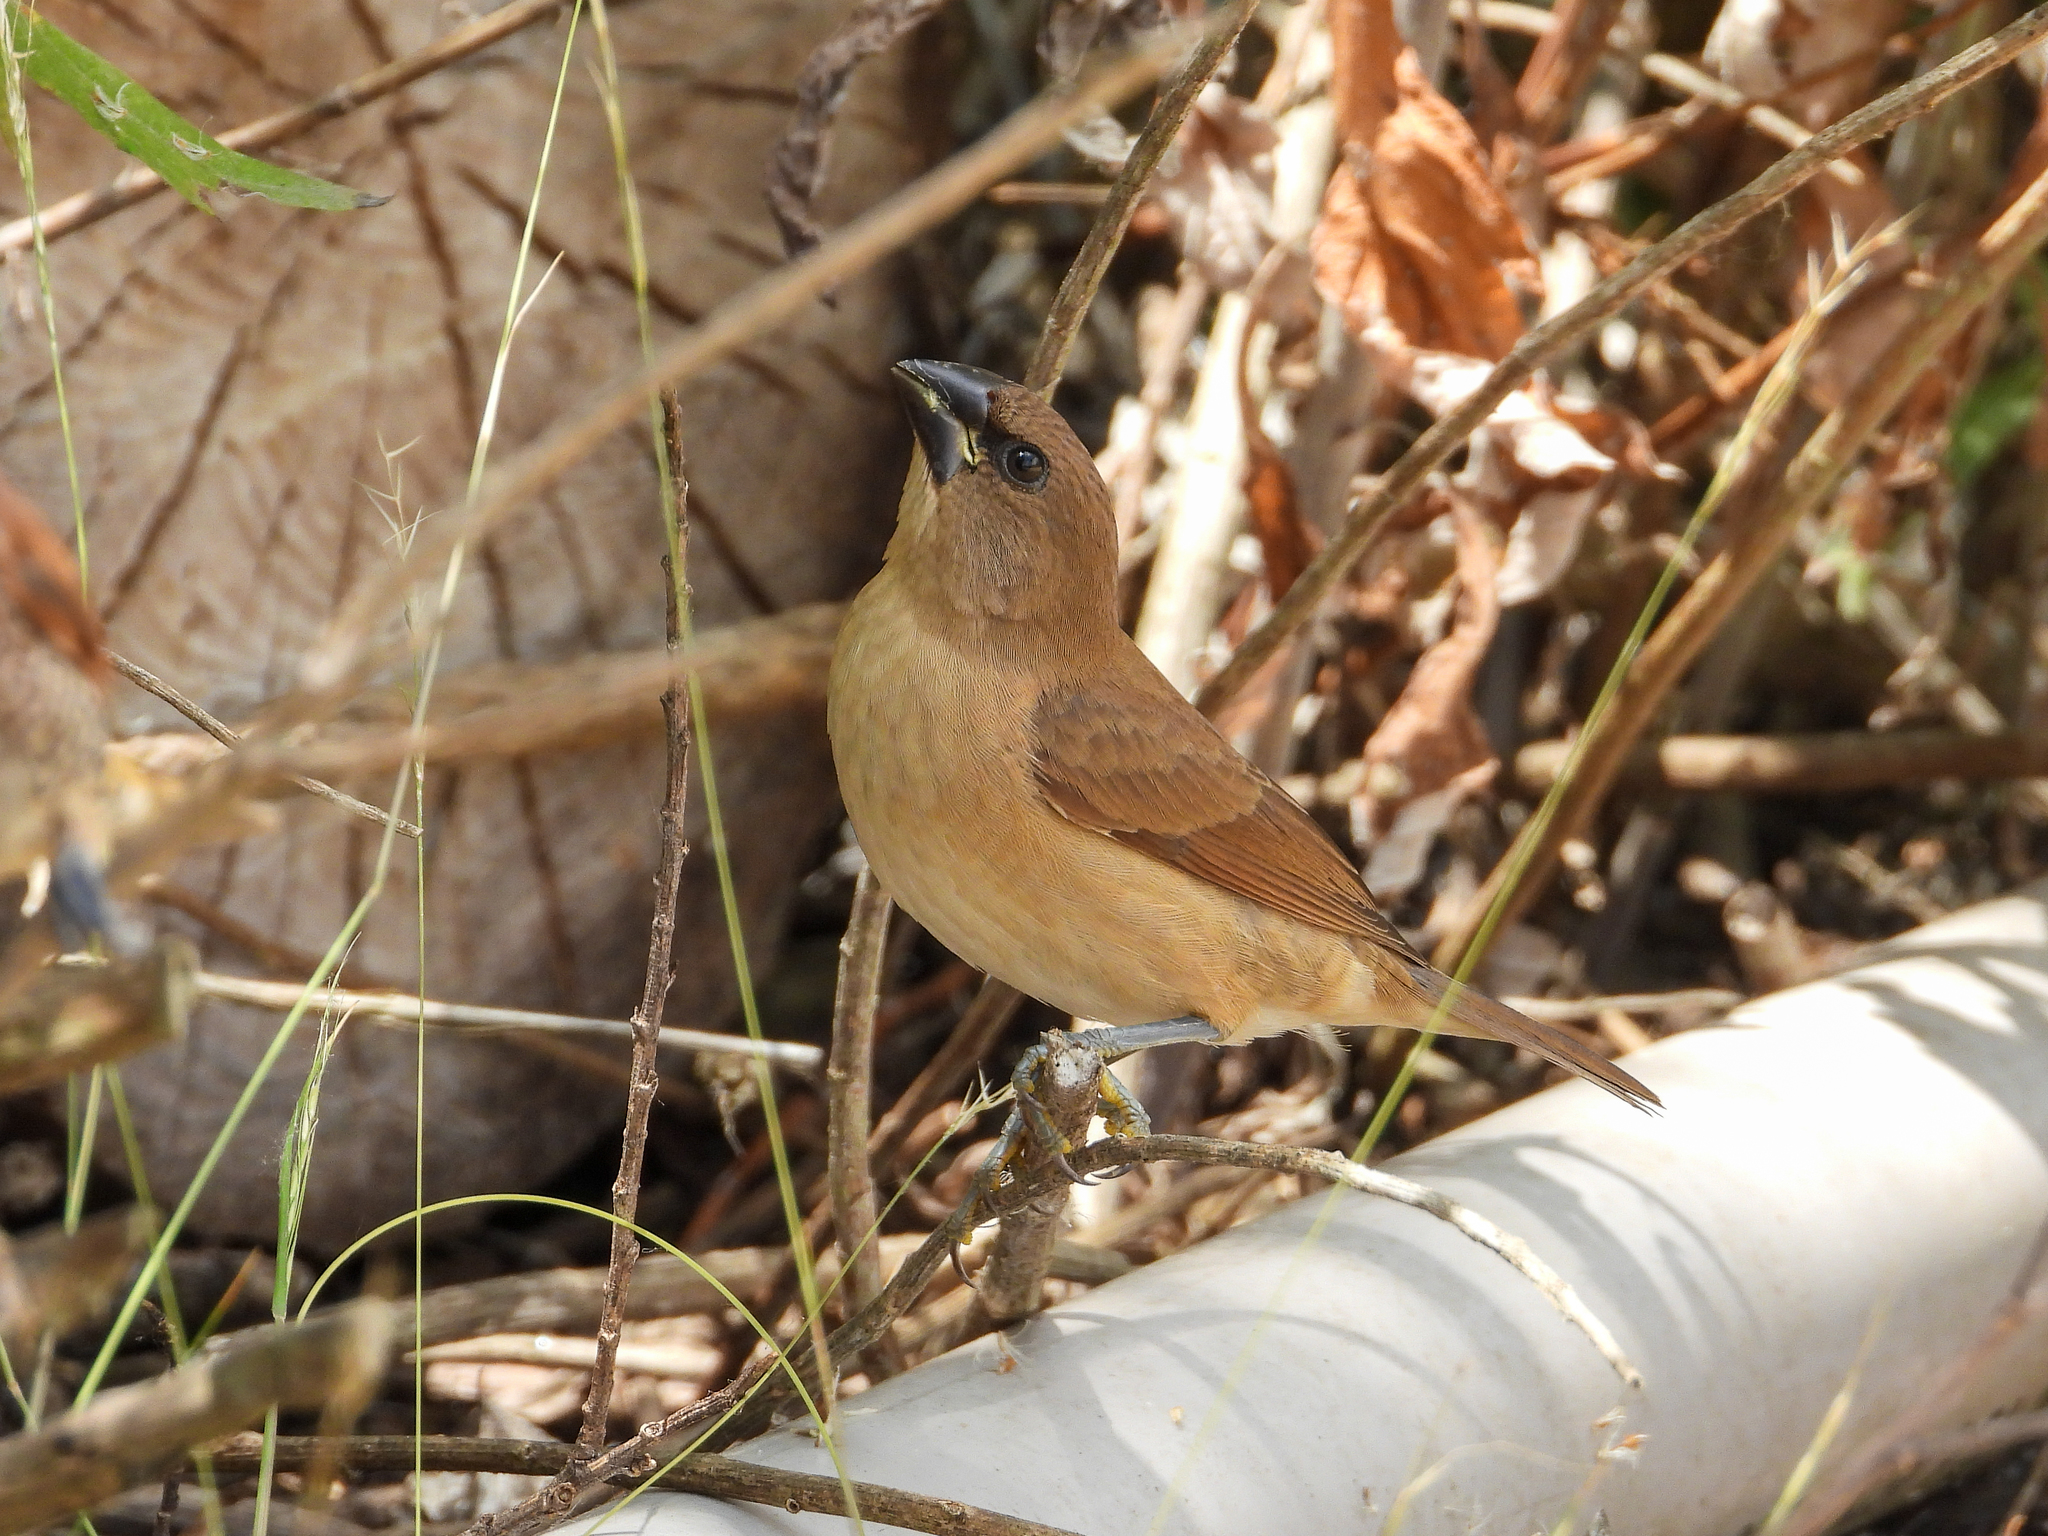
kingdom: Animalia
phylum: Chordata
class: Aves
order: Passeriformes
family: Estrildidae
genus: Lonchura
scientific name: Lonchura punctulata
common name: Scaly-breasted munia
